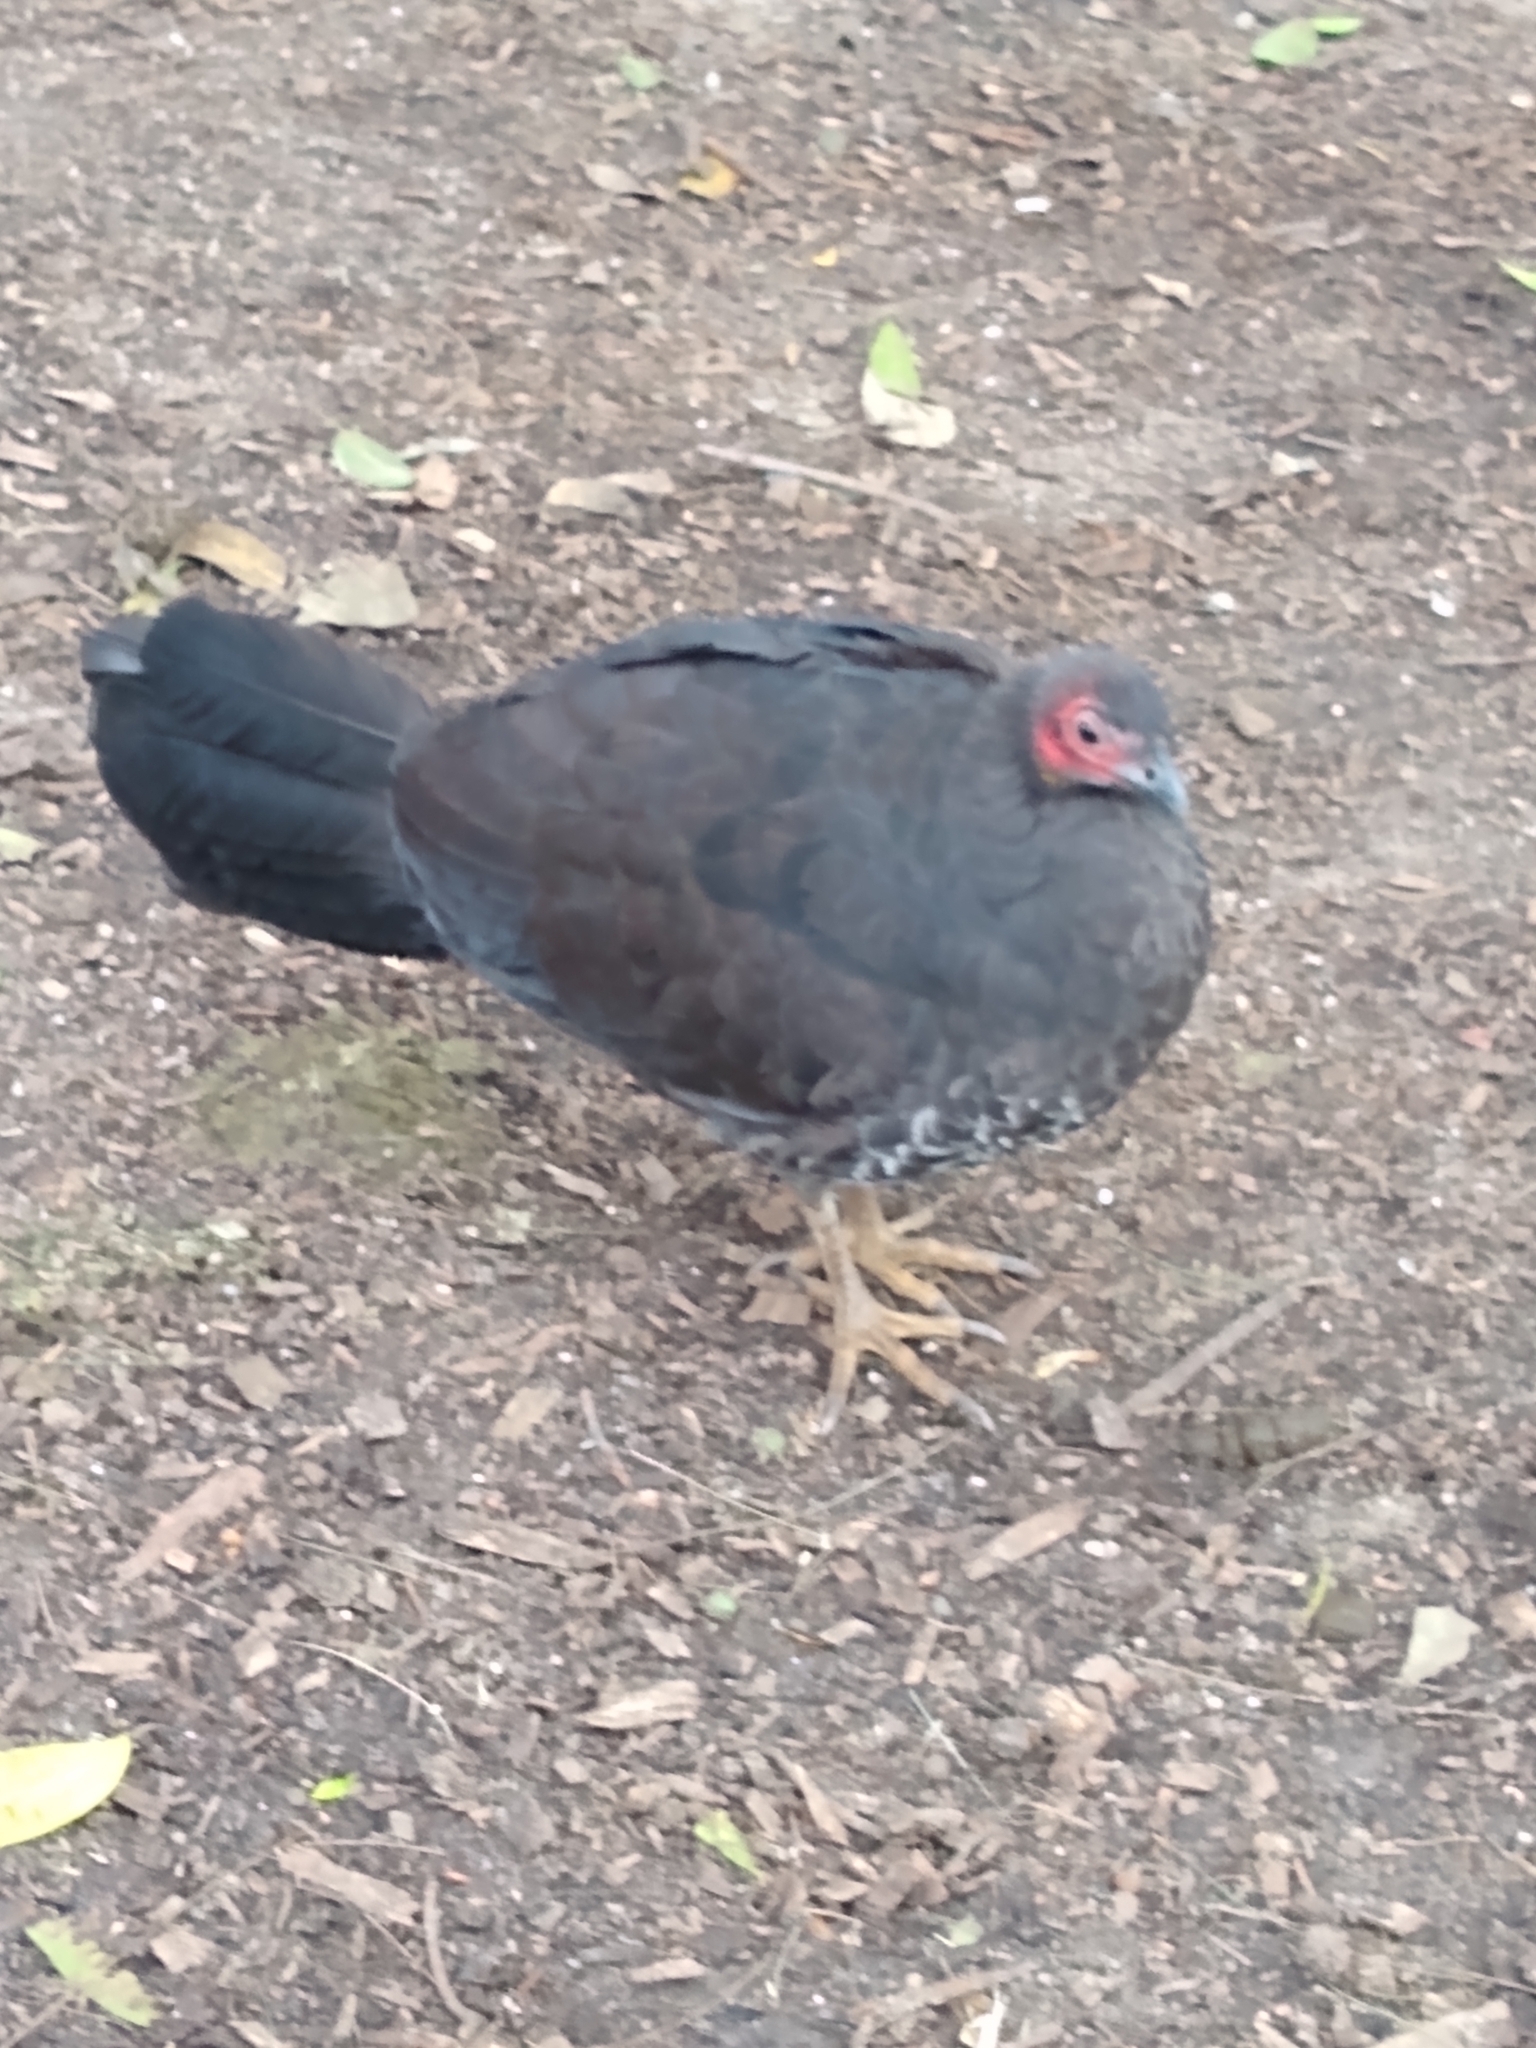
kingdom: Animalia
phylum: Chordata
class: Aves
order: Galliformes
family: Megapodiidae
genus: Alectura
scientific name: Alectura lathami
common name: Australian brushturkey
